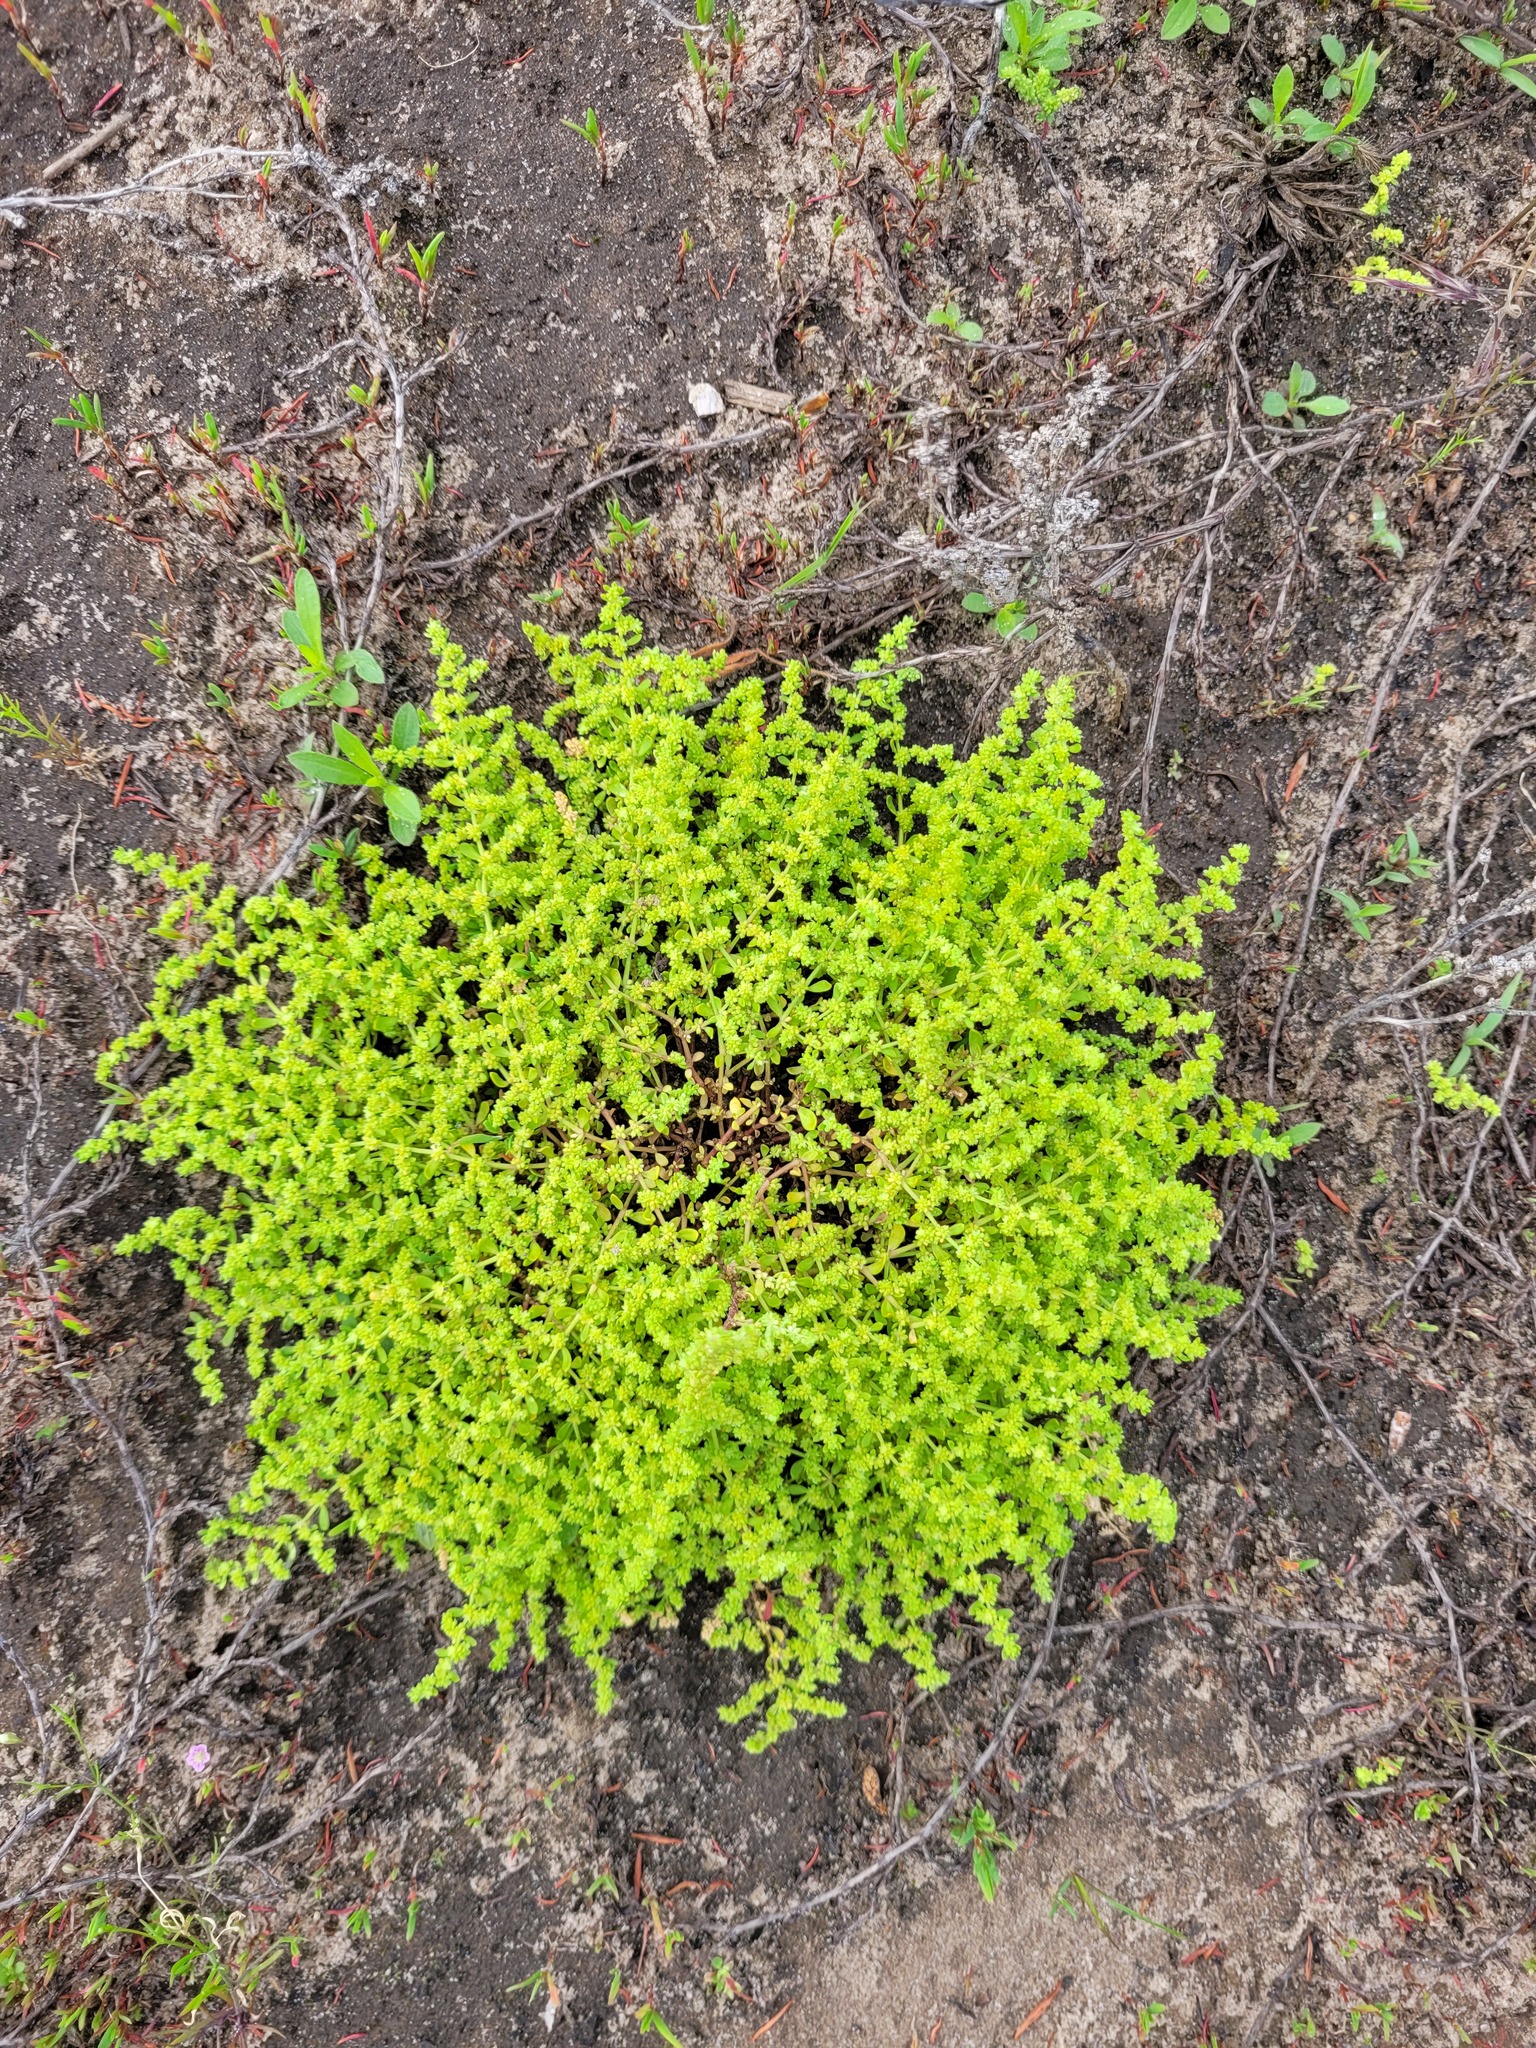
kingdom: Plantae
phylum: Tracheophyta
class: Magnoliopsida
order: Caryophyllales
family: Caryophyllaceae
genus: Herniaria
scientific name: Herniaria polygama
